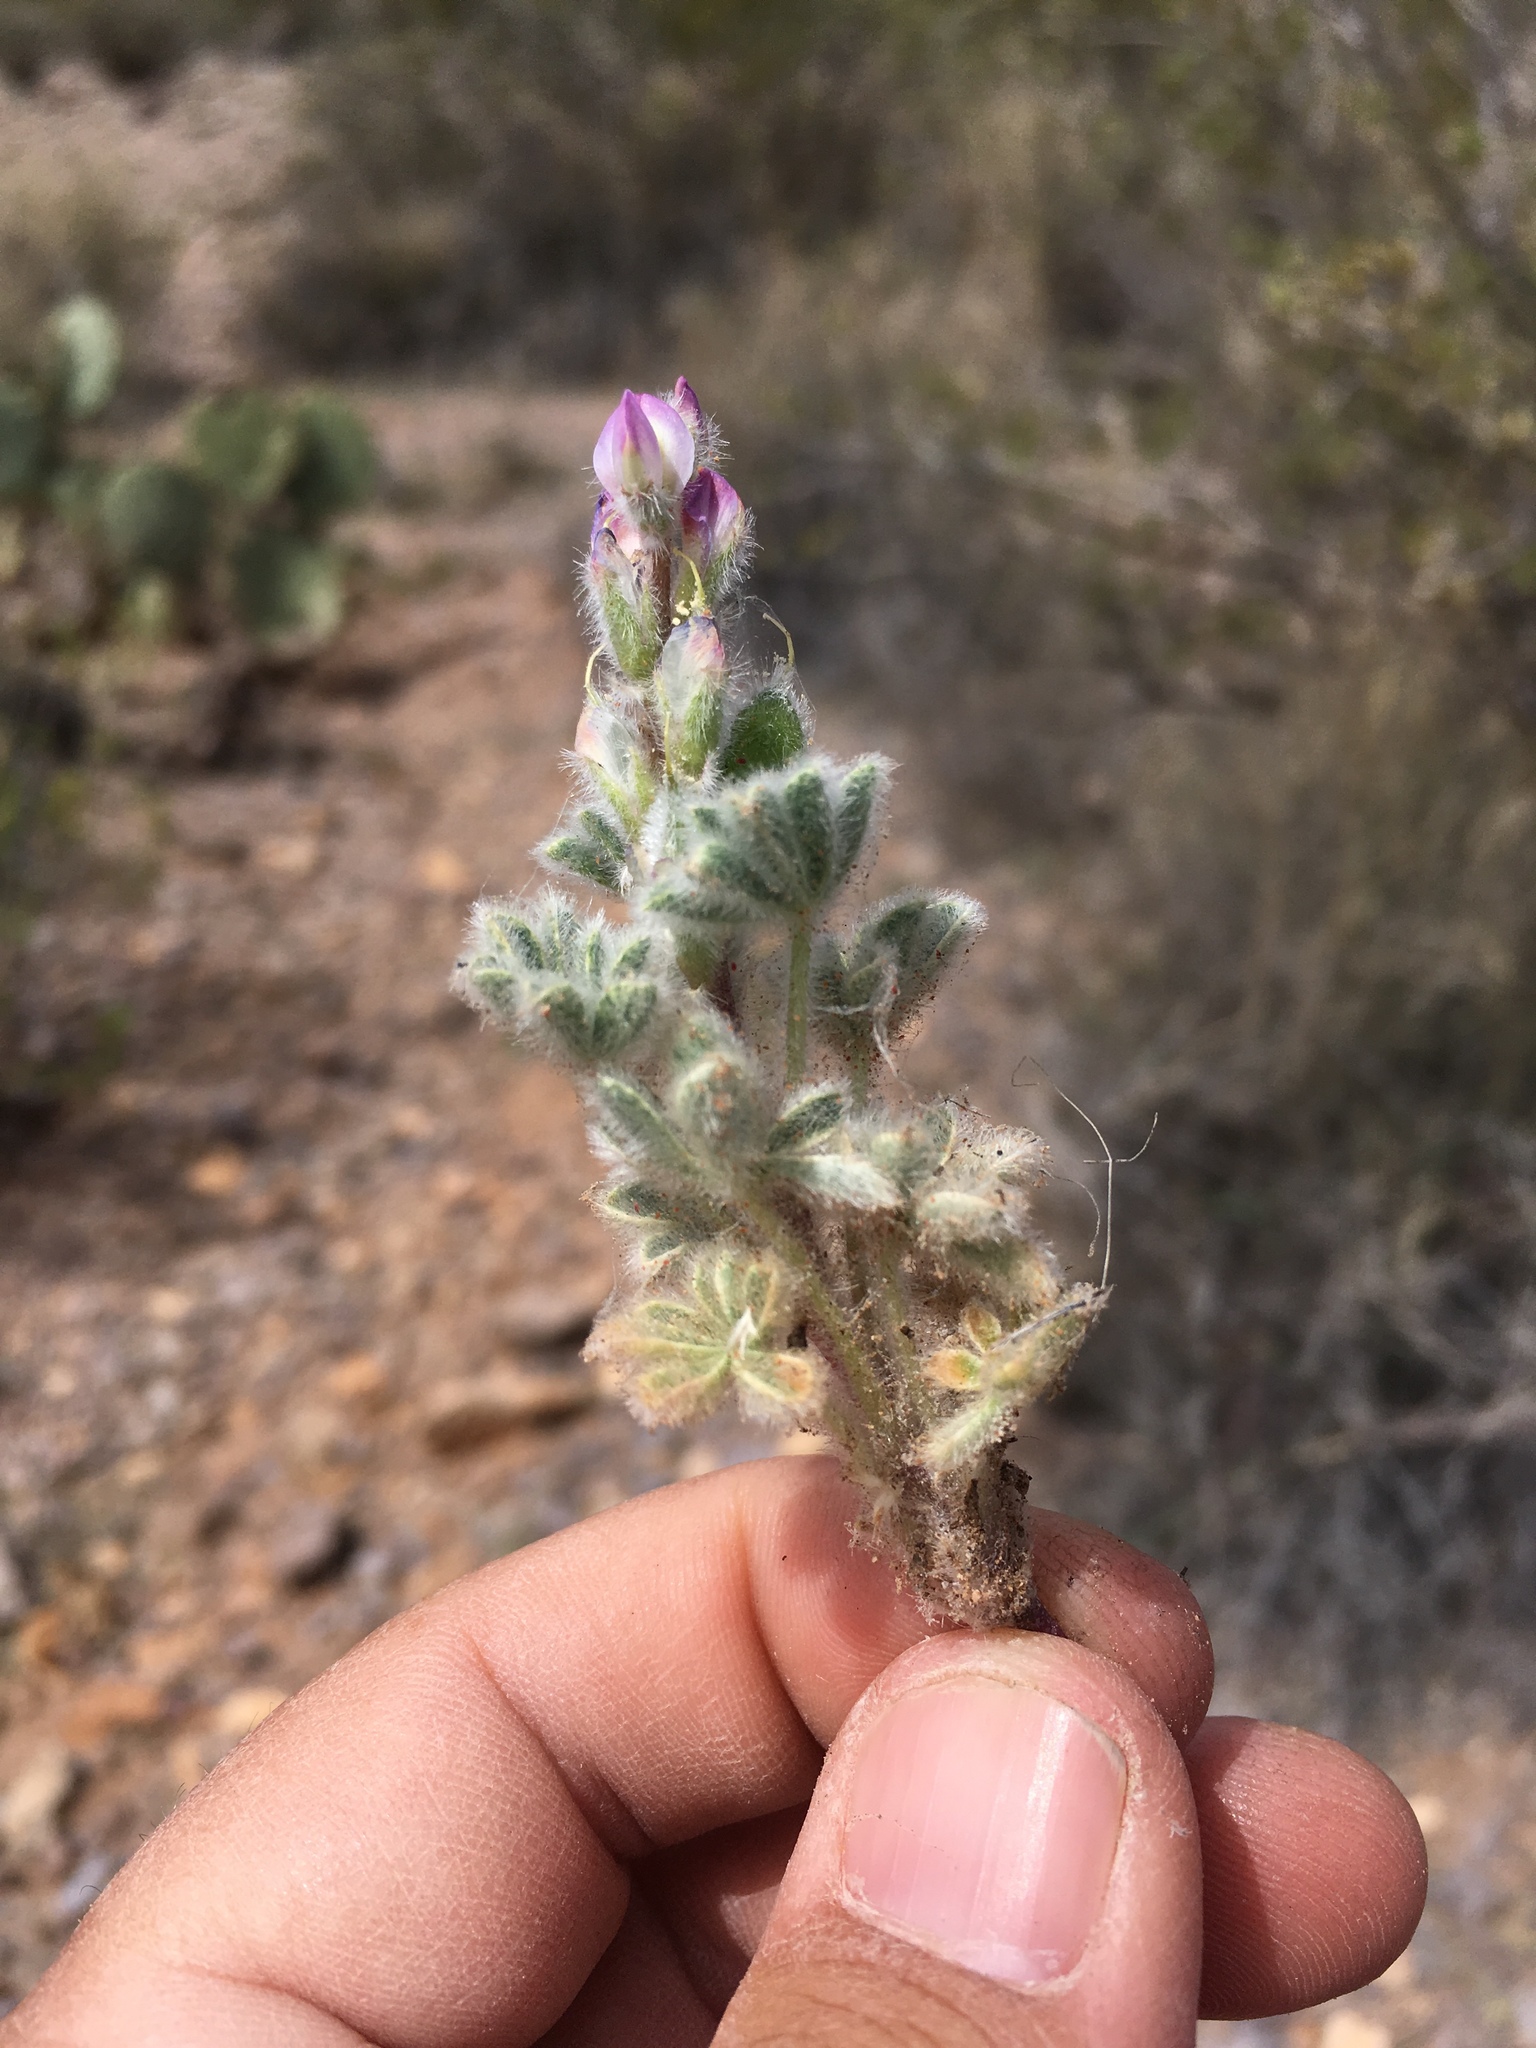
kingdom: Plantae
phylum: Tracheophyta
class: Magnoliopsida
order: Fabales
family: Fabaceae
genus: Lupinus
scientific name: Lupinus concinnus
